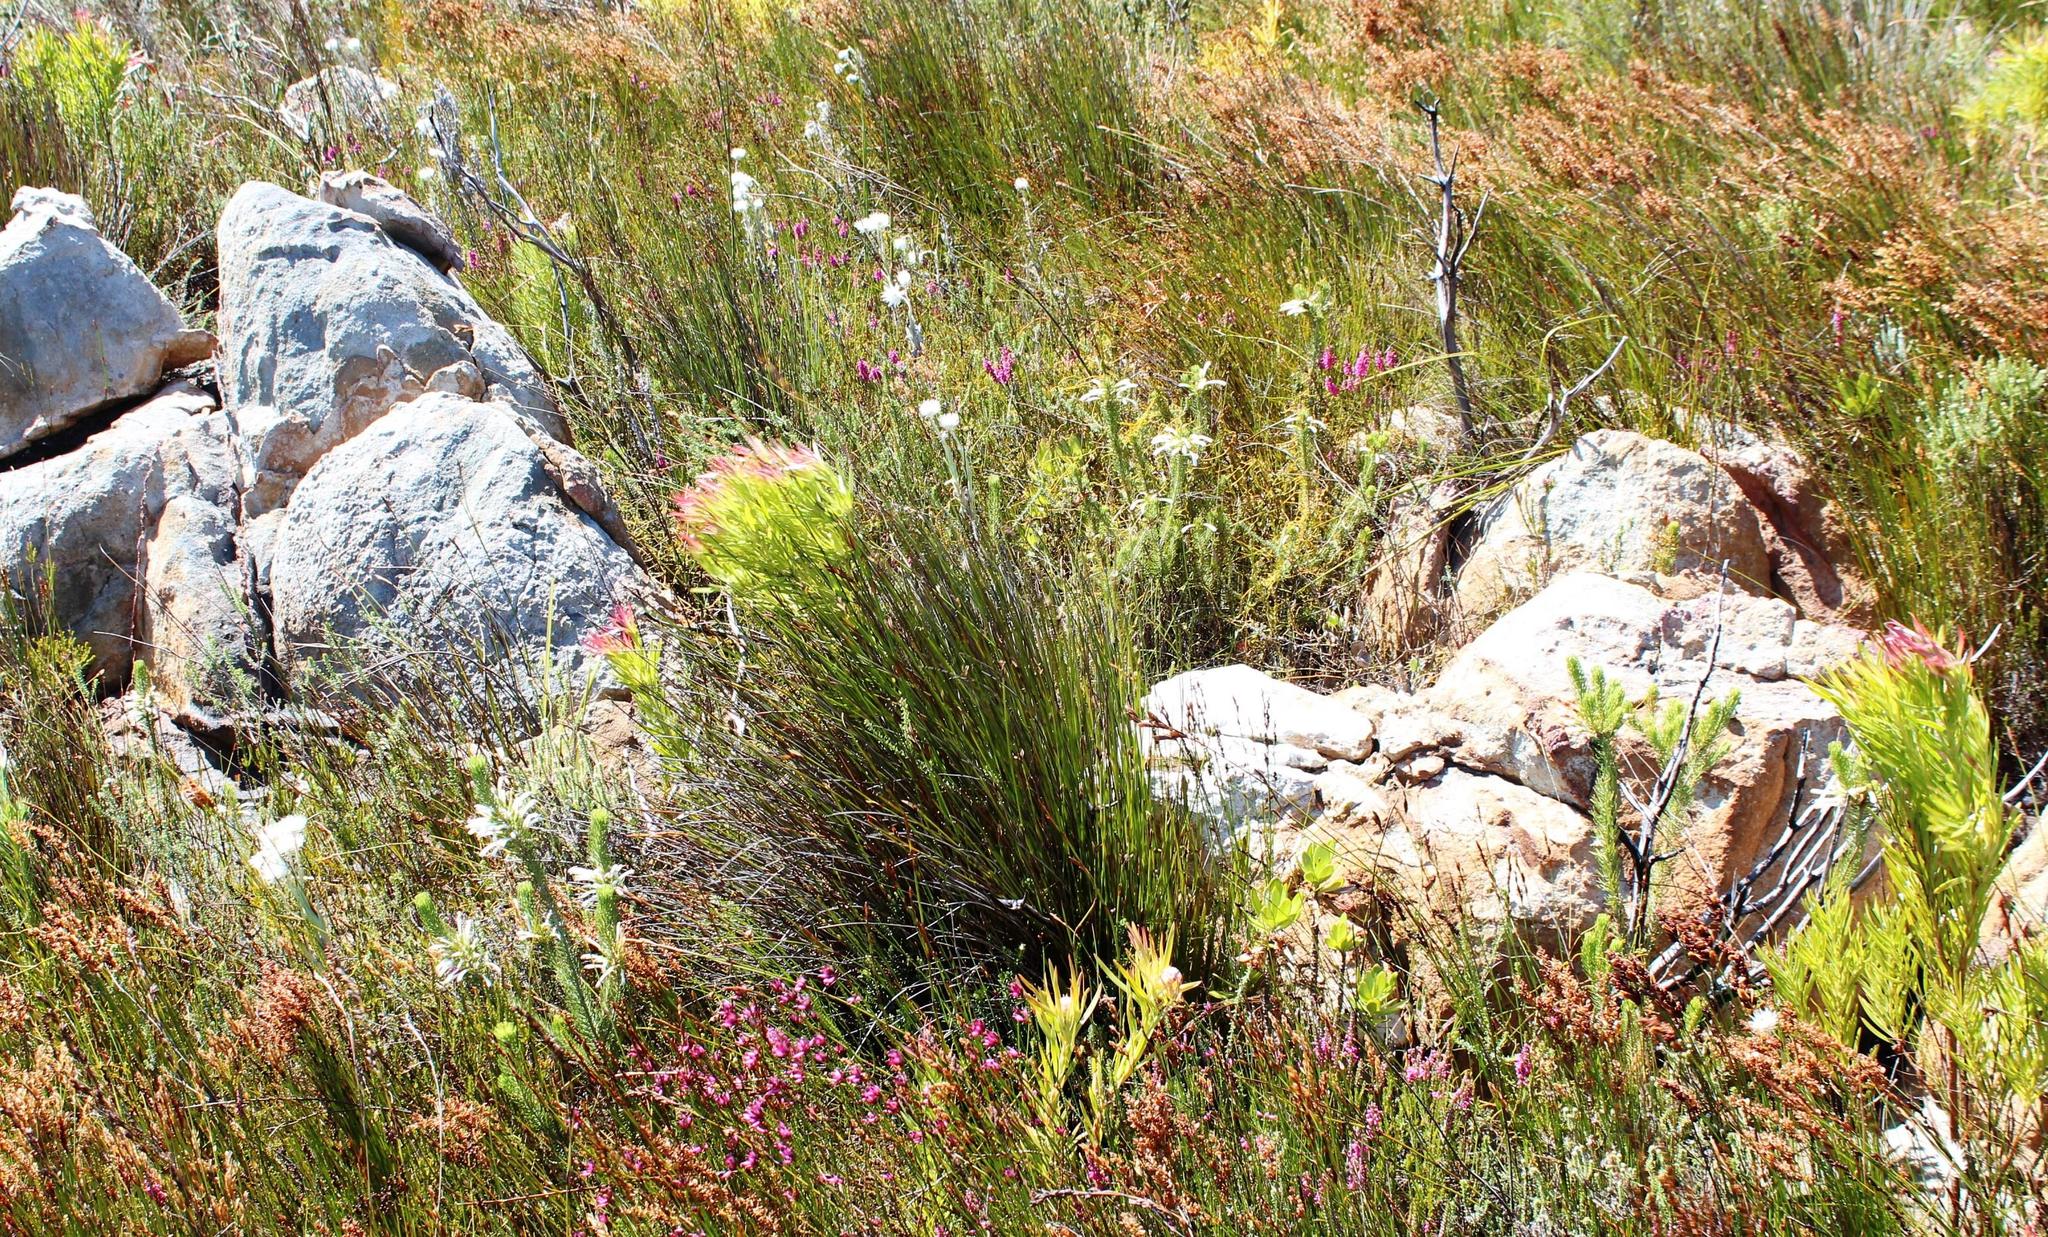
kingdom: Plantae
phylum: Tracheophyta
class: Magnoliopsida
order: Ericales
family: Ericaceae
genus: Erica
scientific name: Erica thomae
